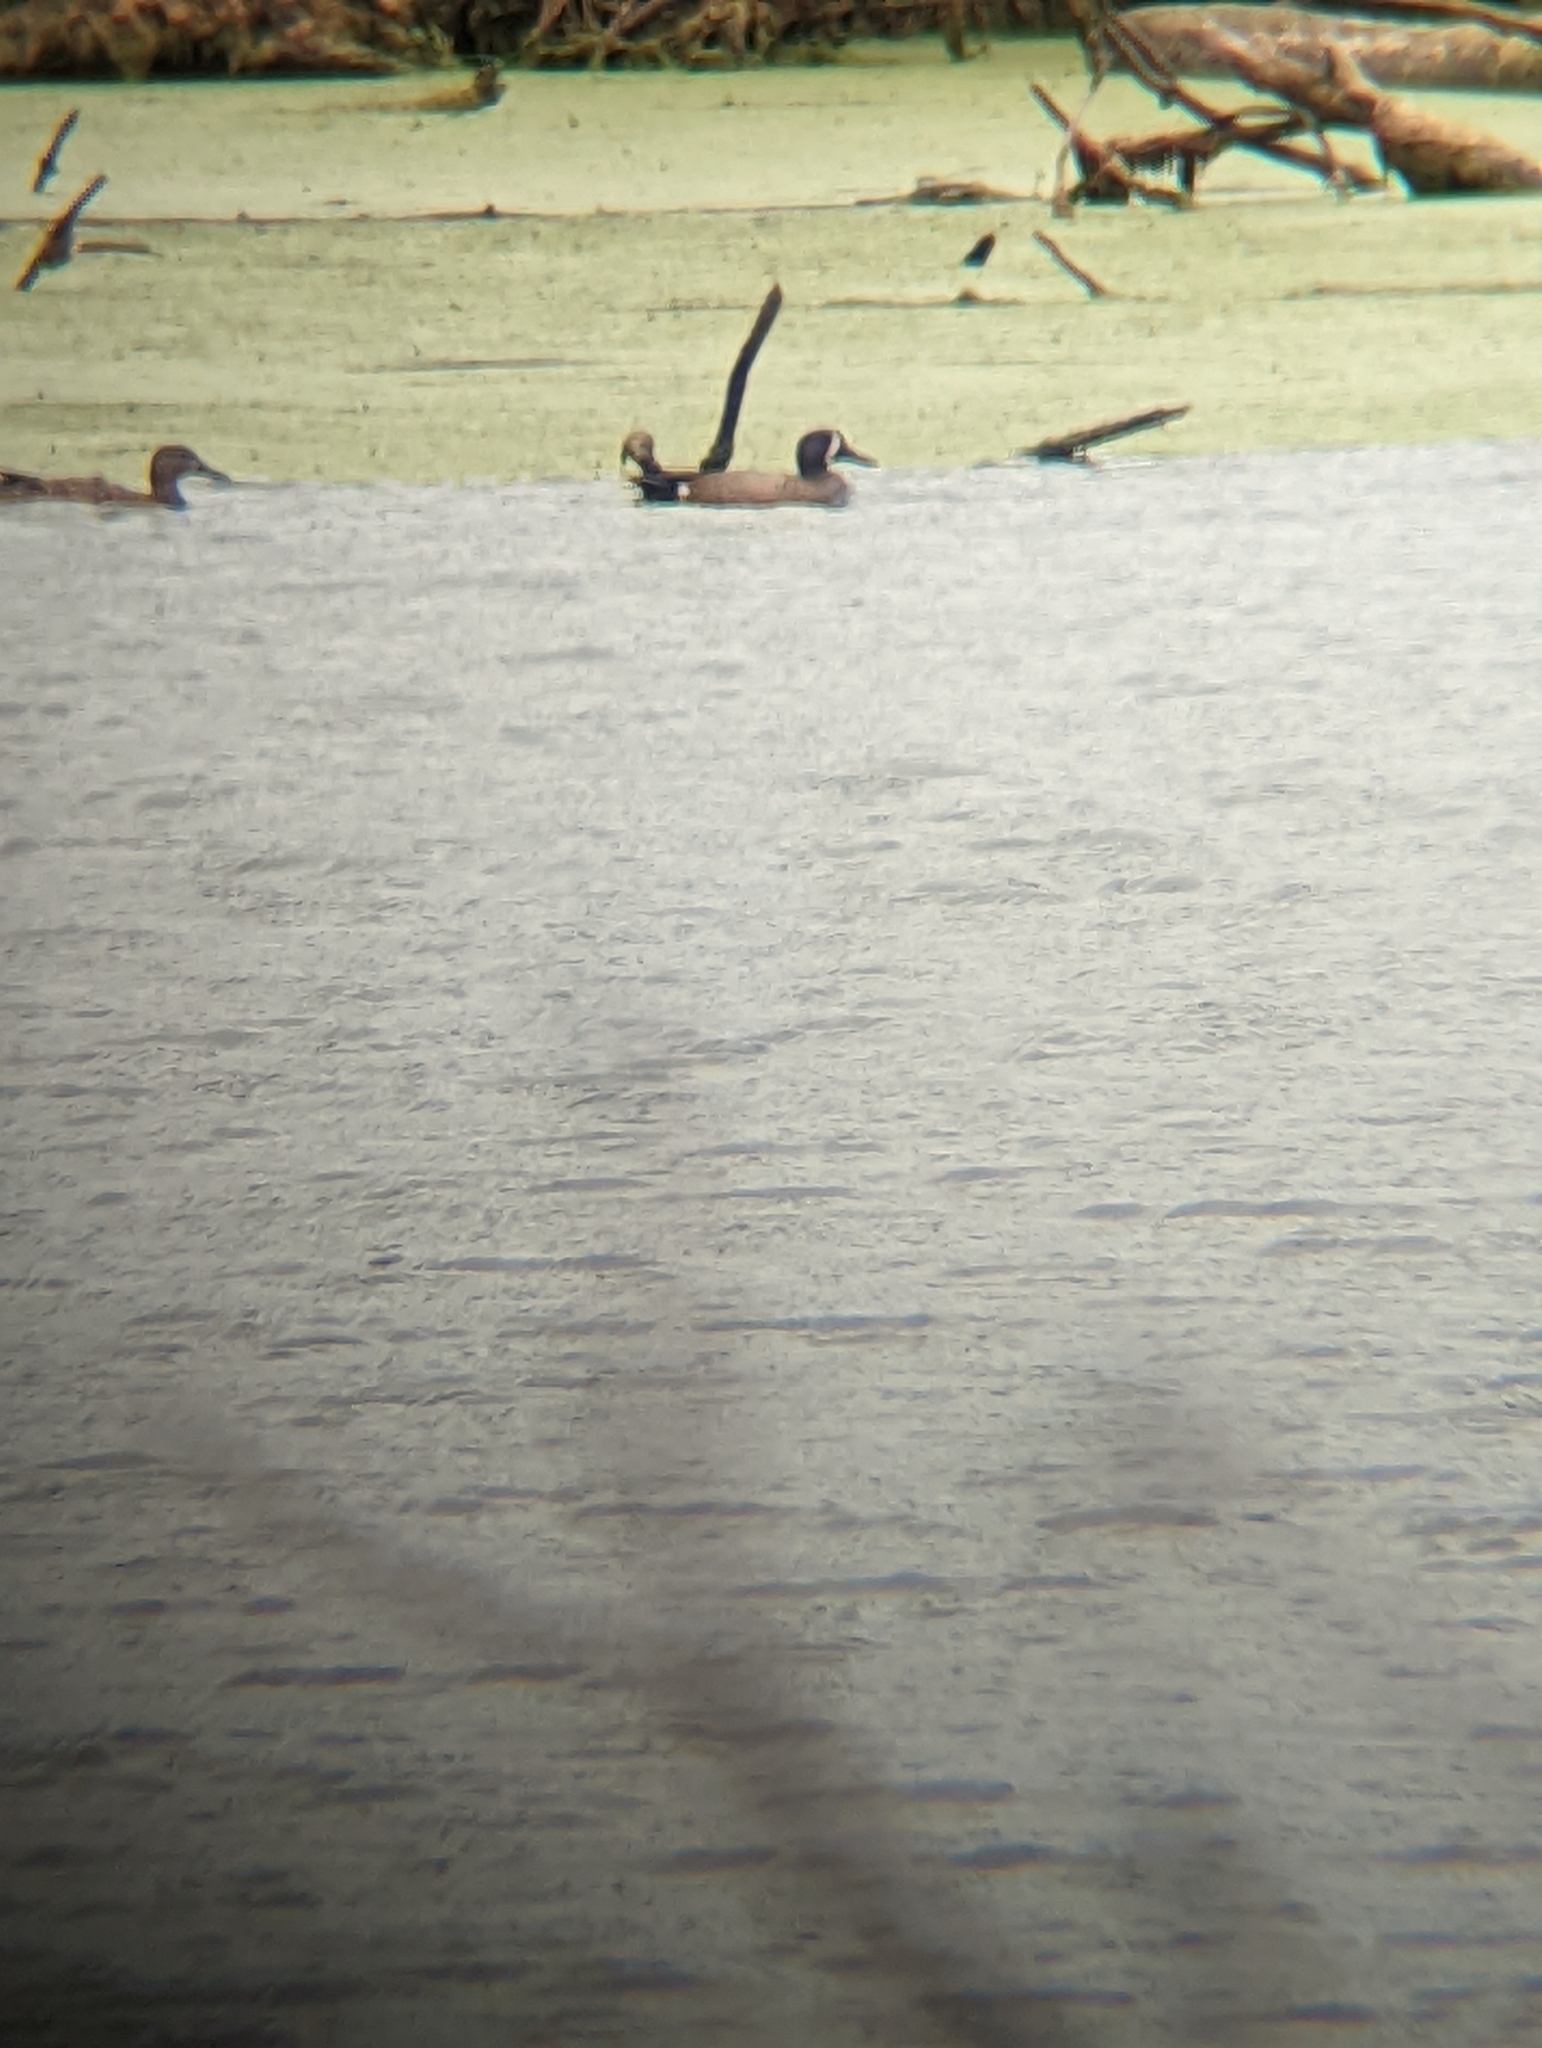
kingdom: Animalia
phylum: Chordata
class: Aves
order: Anseriformes
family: Anatidae
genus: Spatula
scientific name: Spatula discors
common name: Blue-winged teal
